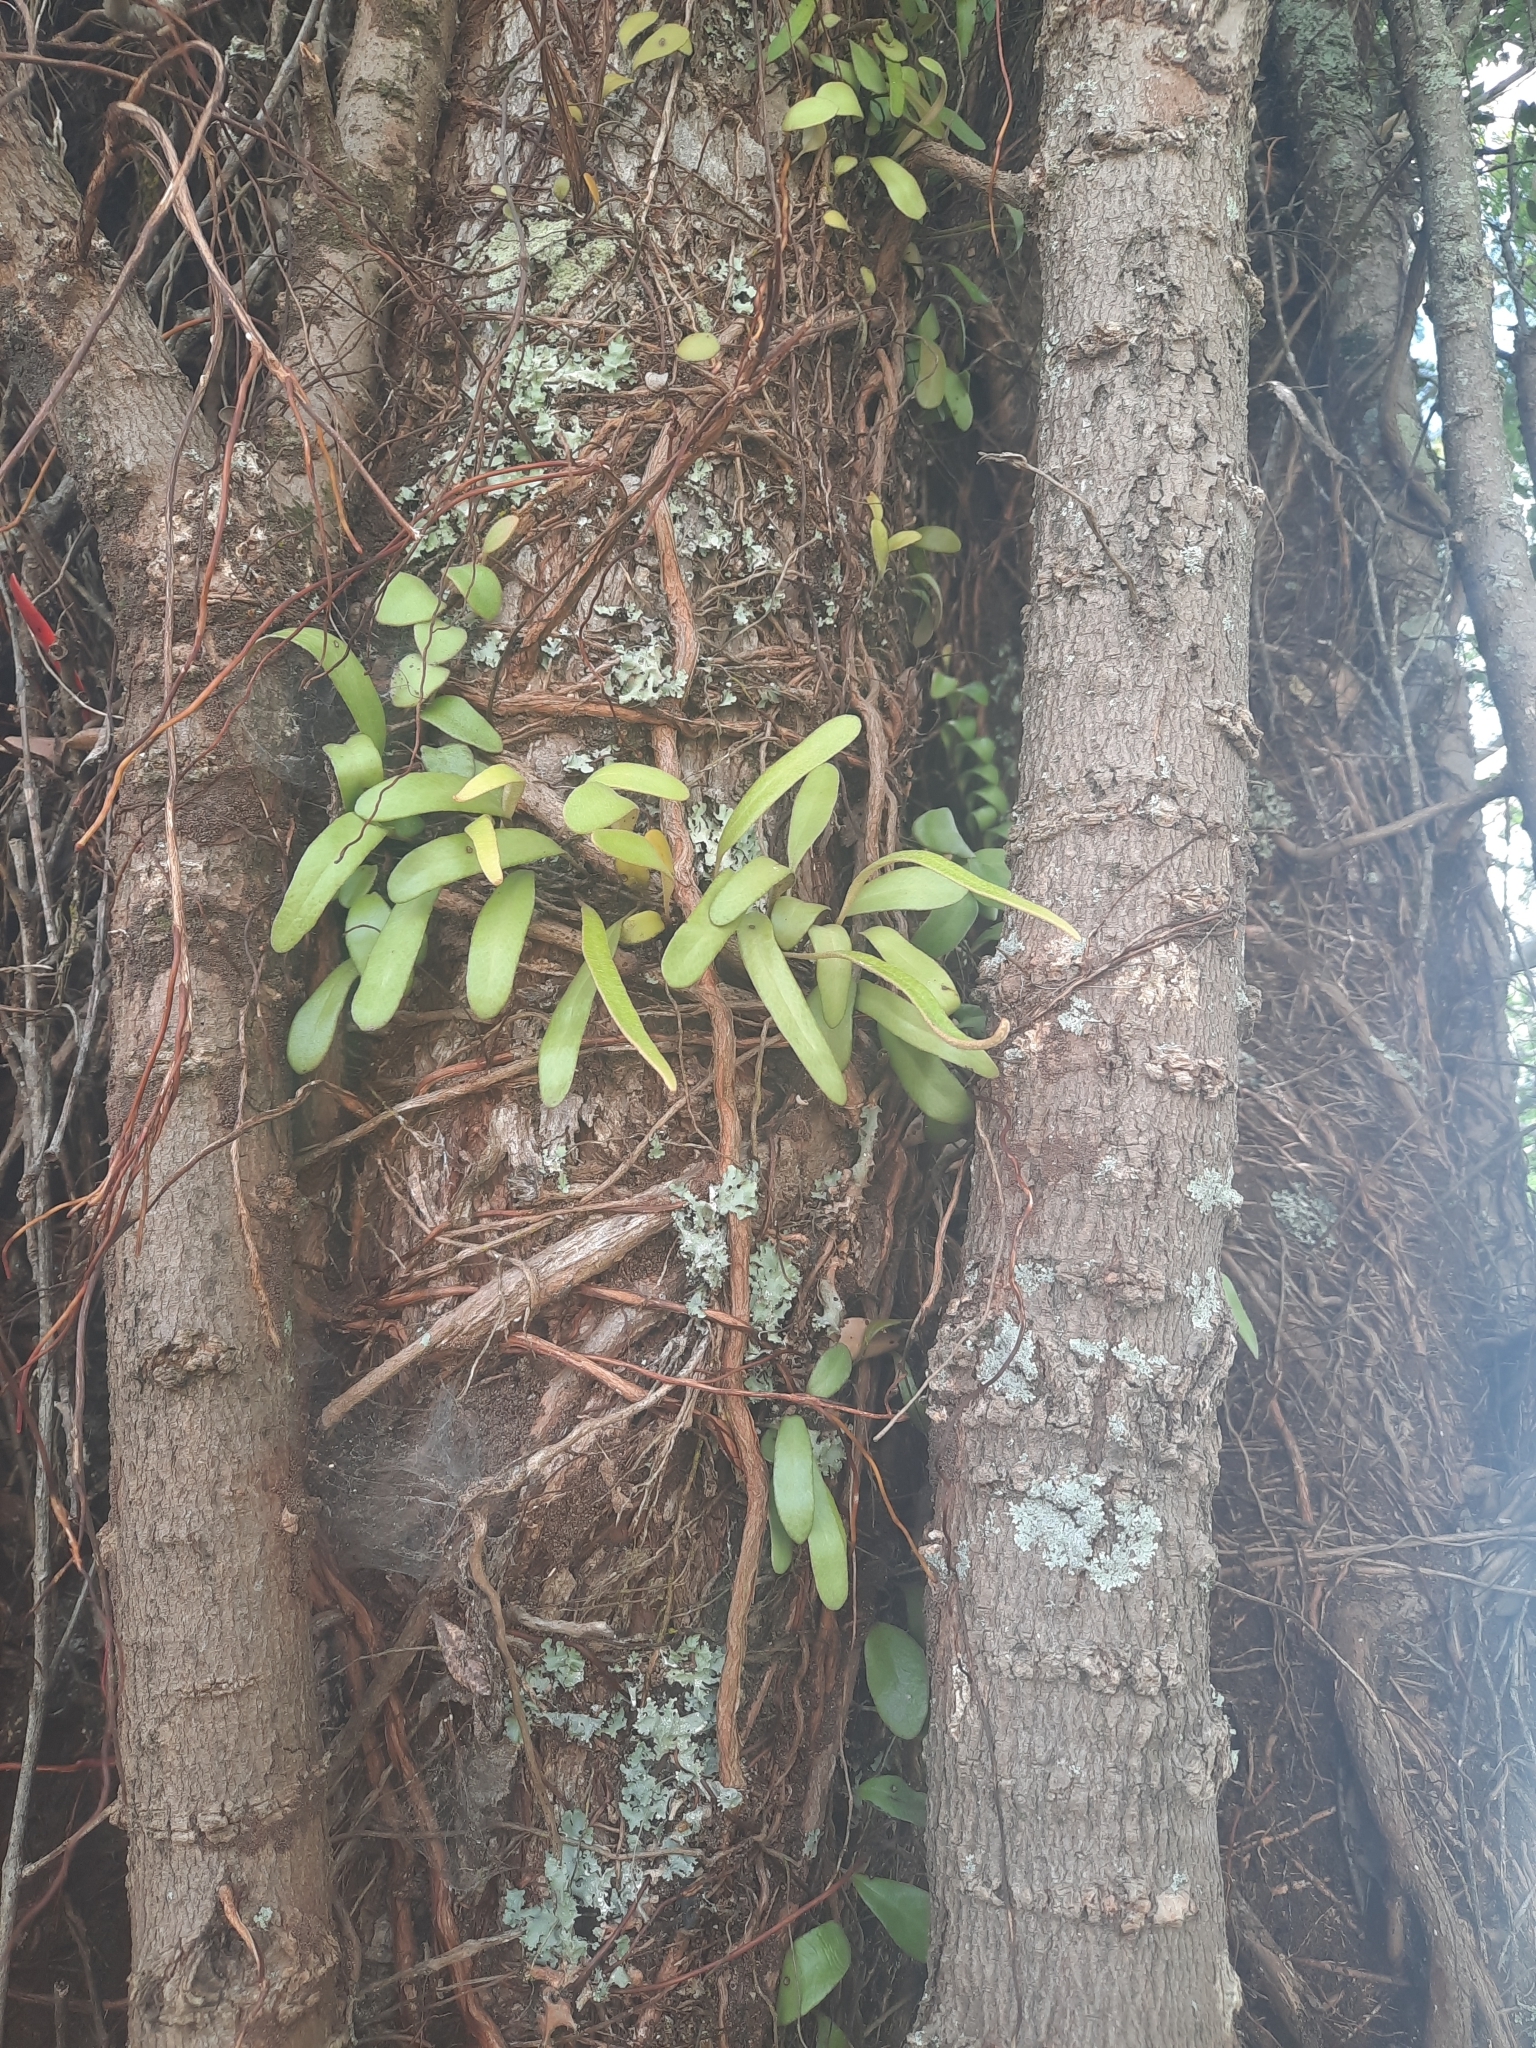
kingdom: Plantae
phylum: Tracheophyta
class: Polypodiopsida
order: Polypodiales
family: Polypodiaceae
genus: Pyrrosia
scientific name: Pyrrosia eleagnifolia
